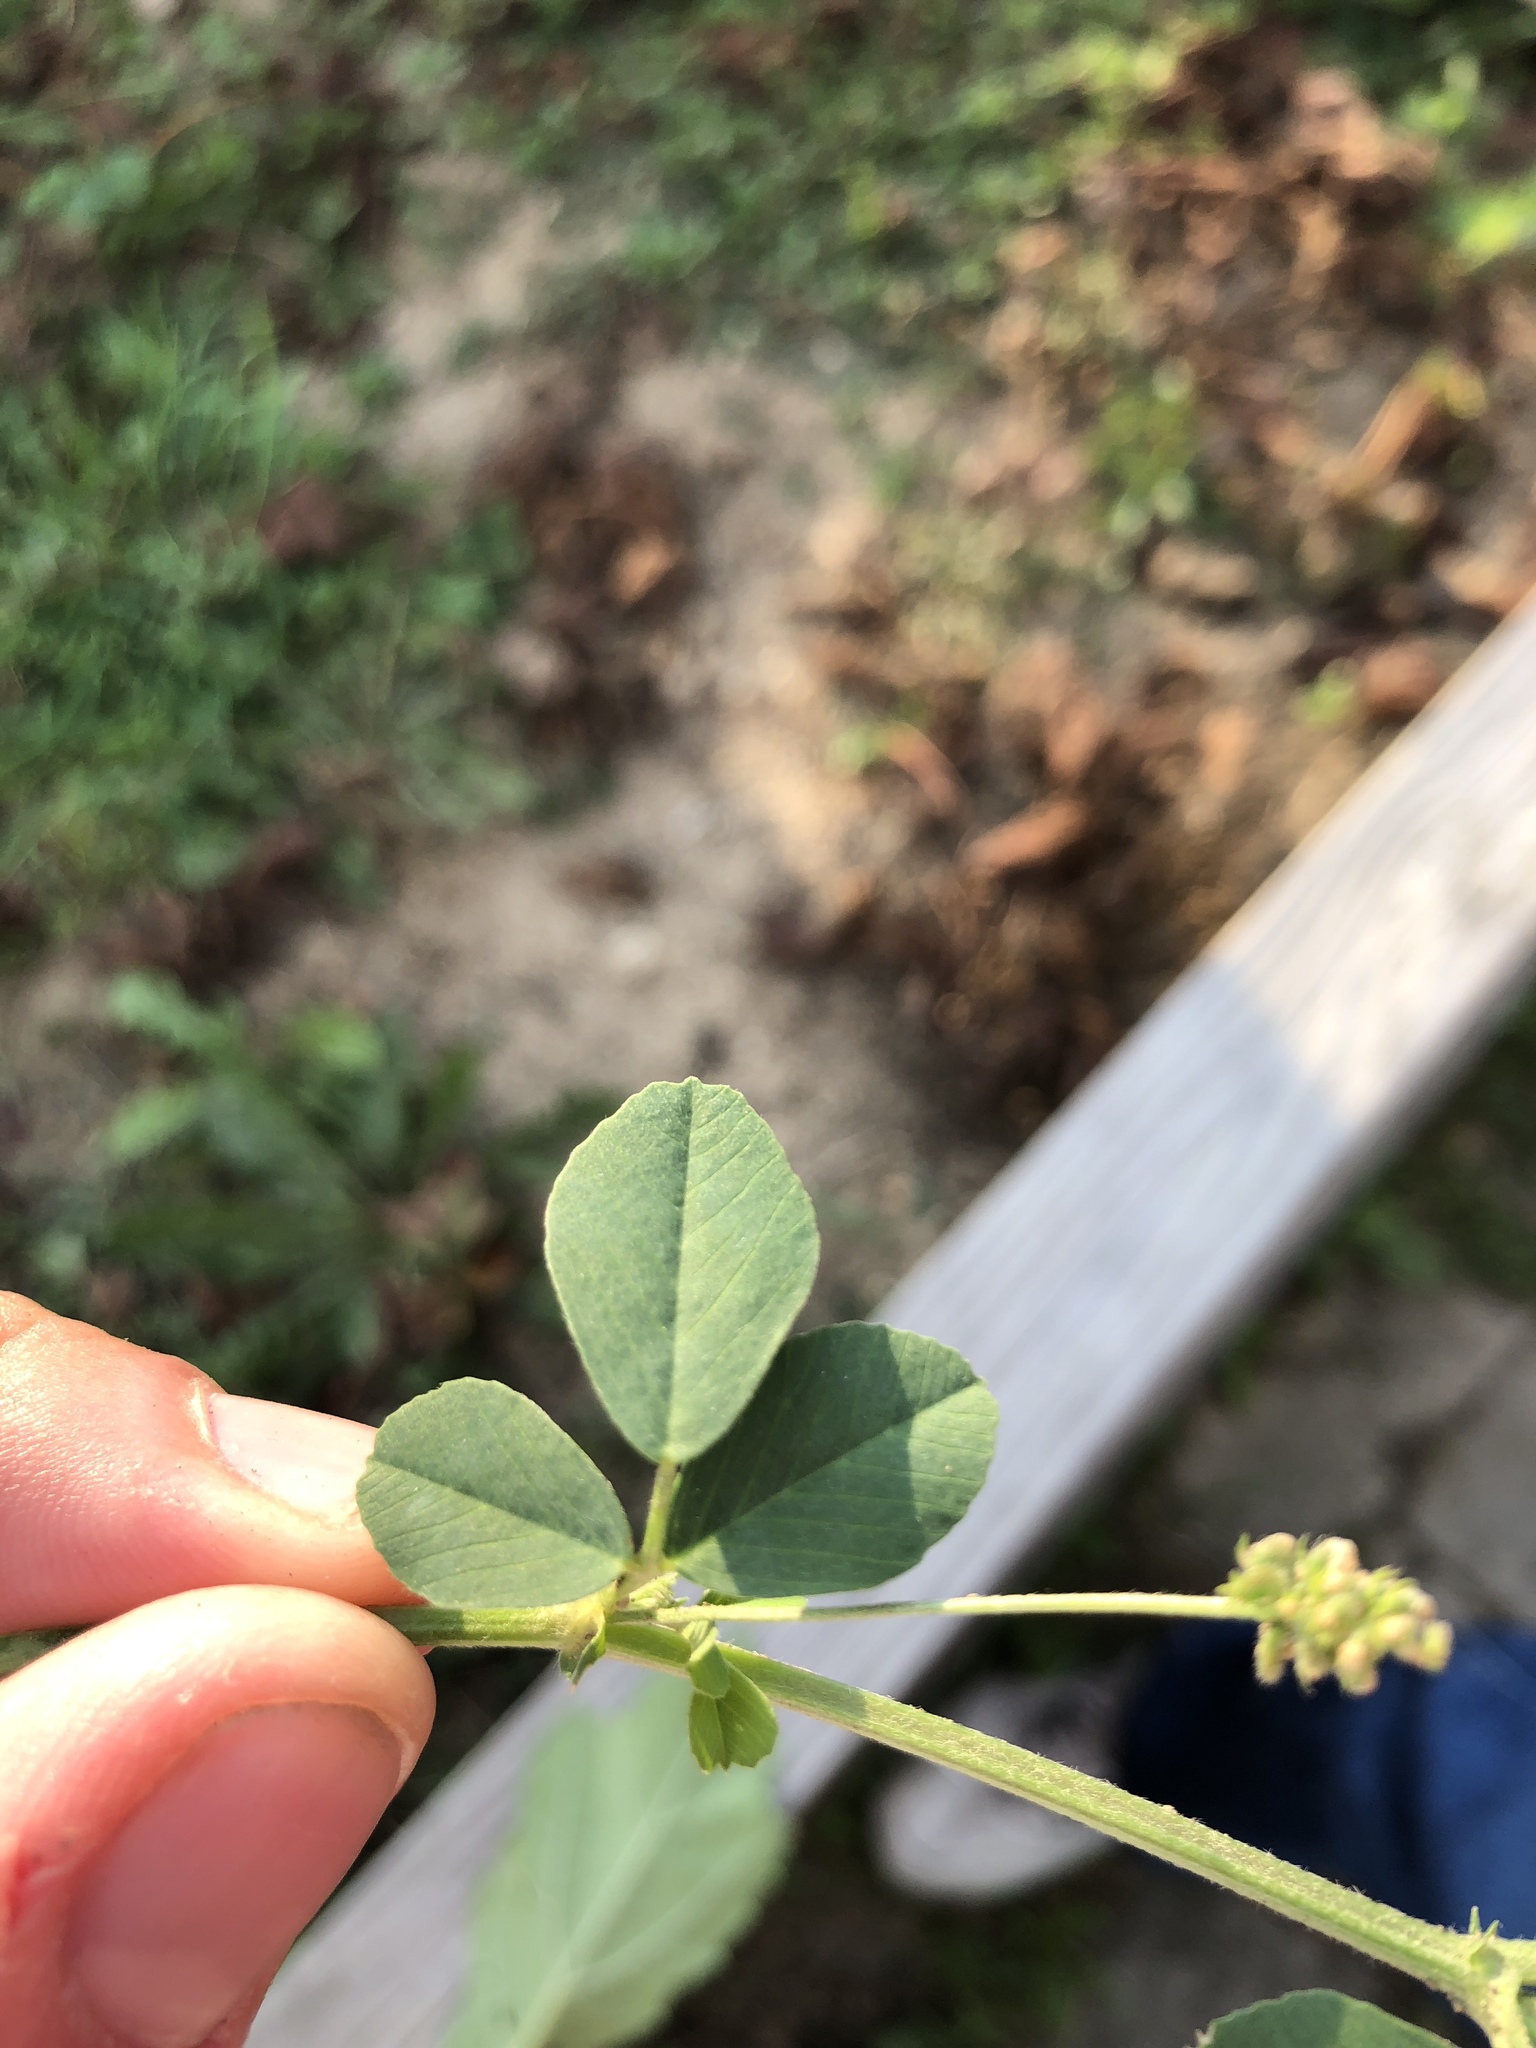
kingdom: Plantae
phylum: Tracheophyta
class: Magnoliopsida
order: Fabales
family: Fabaceae
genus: Medicago
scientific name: Medicago lupulina
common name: Black medick
